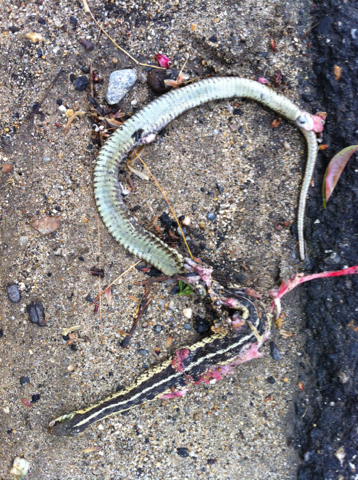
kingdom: Animalia
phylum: Chordata
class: Squamata
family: Colubridae
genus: Thamnophis
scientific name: Thamnophis sirtalis
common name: Common garter snake
